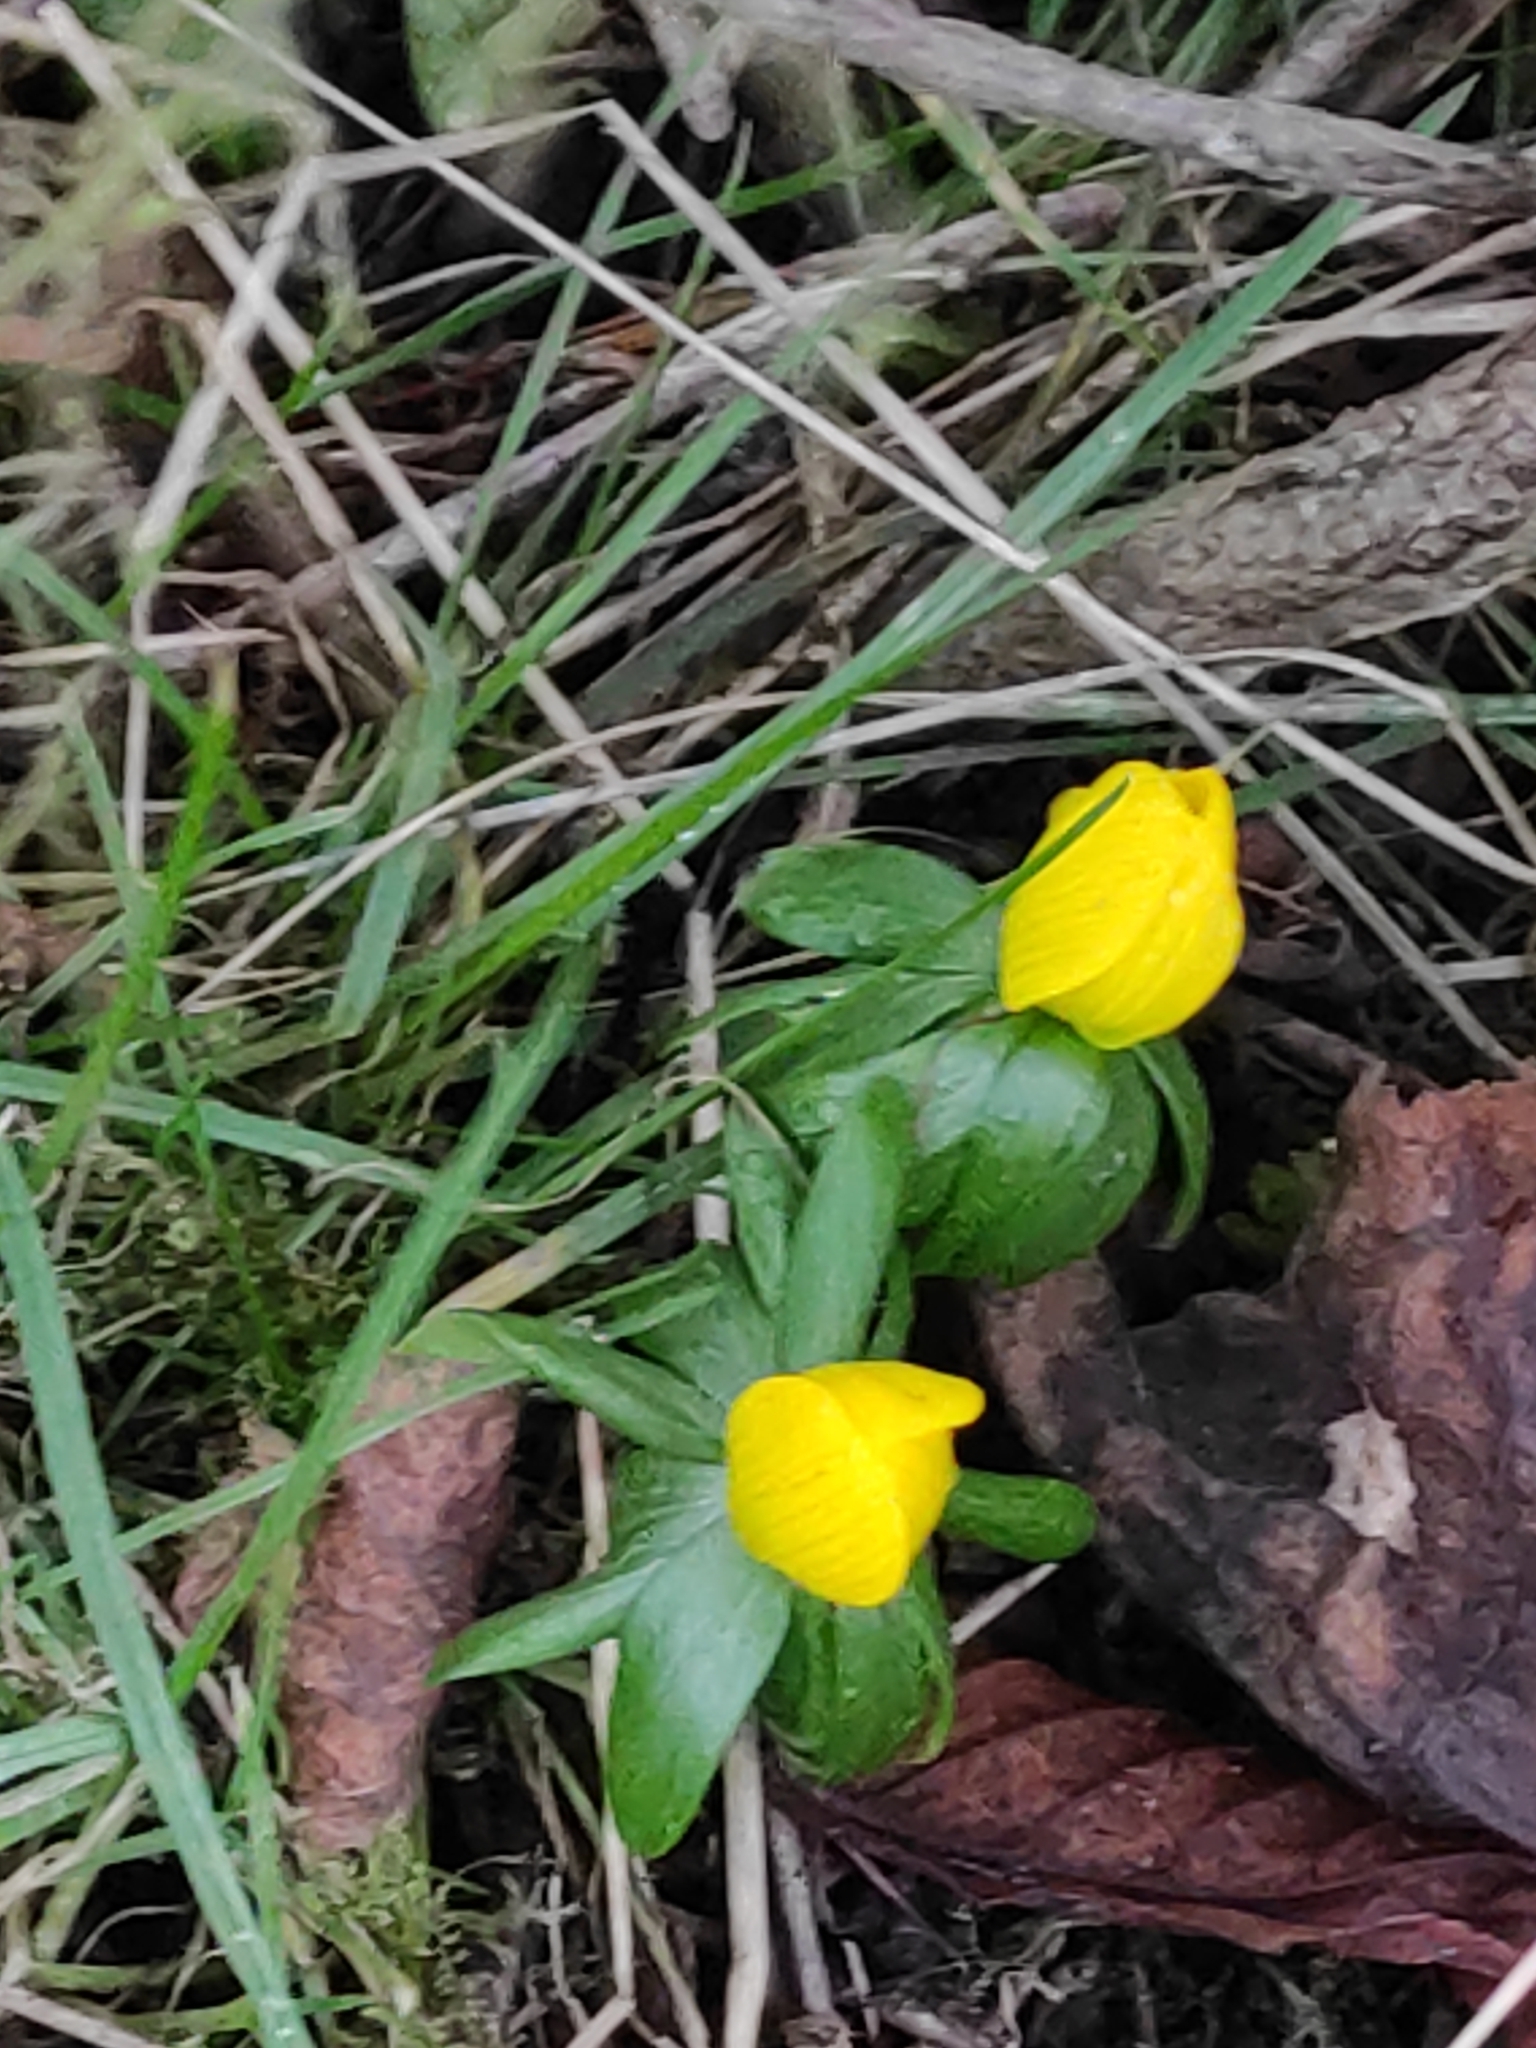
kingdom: Plantae
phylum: Tracheophyta
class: Magnoliopsida
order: Ranunculales
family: Ranunculaceae
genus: Eranthis
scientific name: Eranthis hyemalis
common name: Winter aconite
